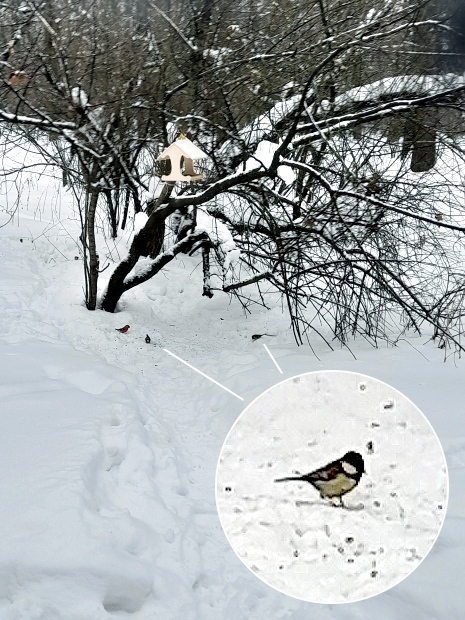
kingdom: Animalia
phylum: Chordata
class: Aves
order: Passeriformes
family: Paridae
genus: Parus
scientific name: Parus major
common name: Great tit
